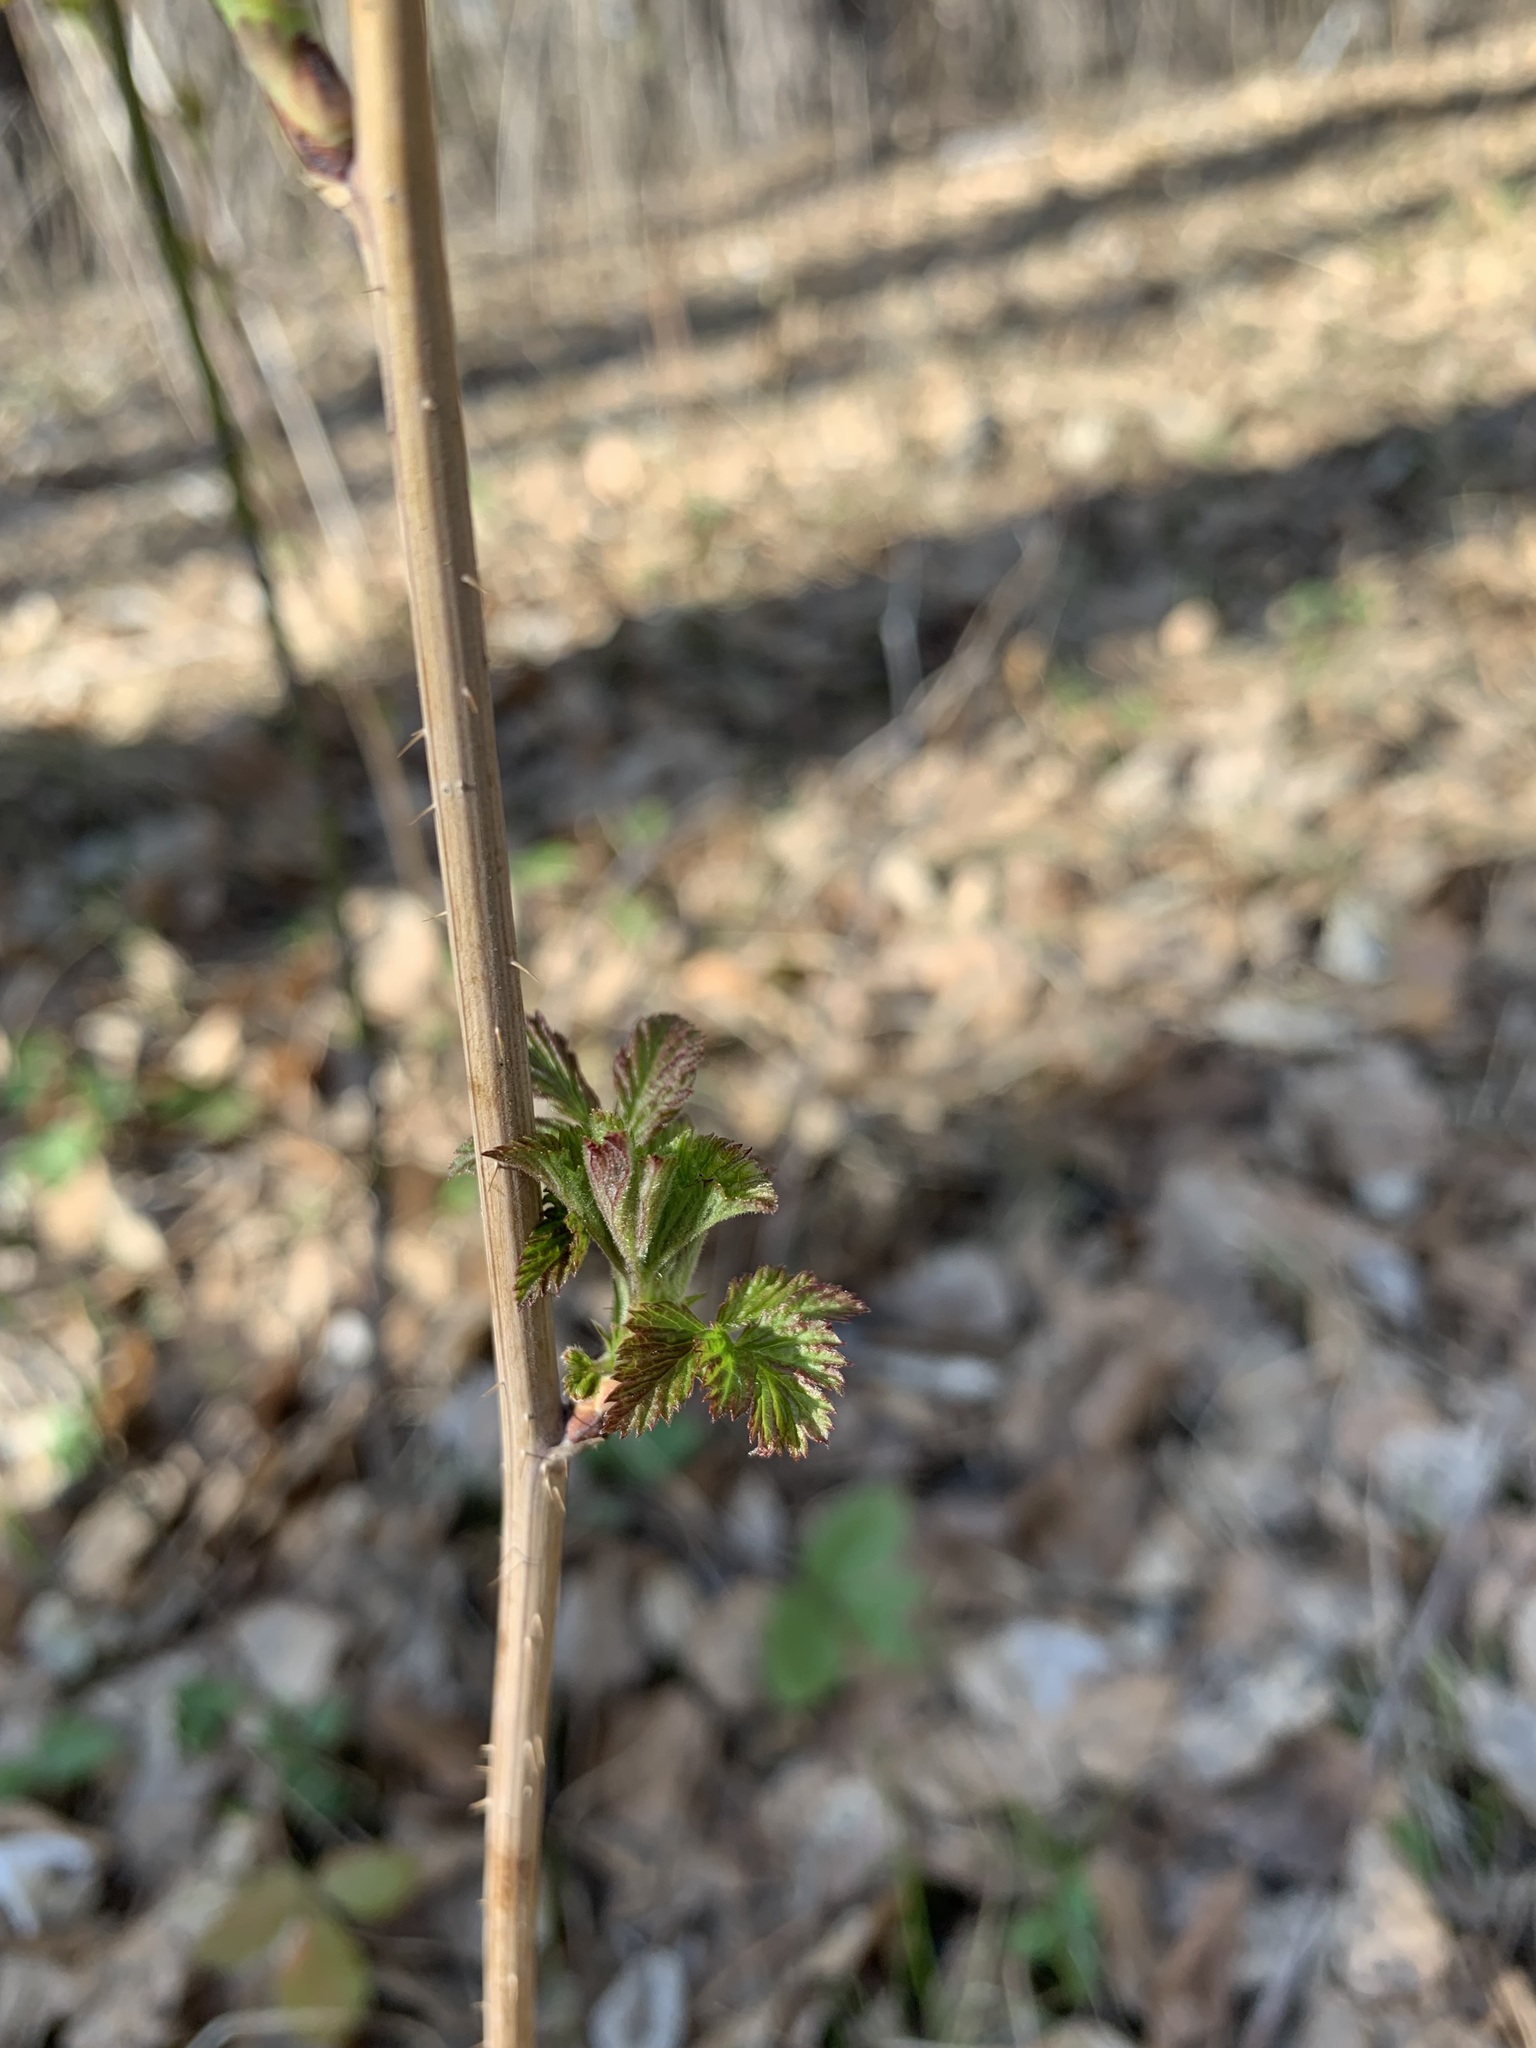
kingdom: Plantae
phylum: Tracheophyta
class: Magnoliopsida
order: Rosales
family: Rosaceae
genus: Rubus
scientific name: Rubus idaeus
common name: Raspberry
